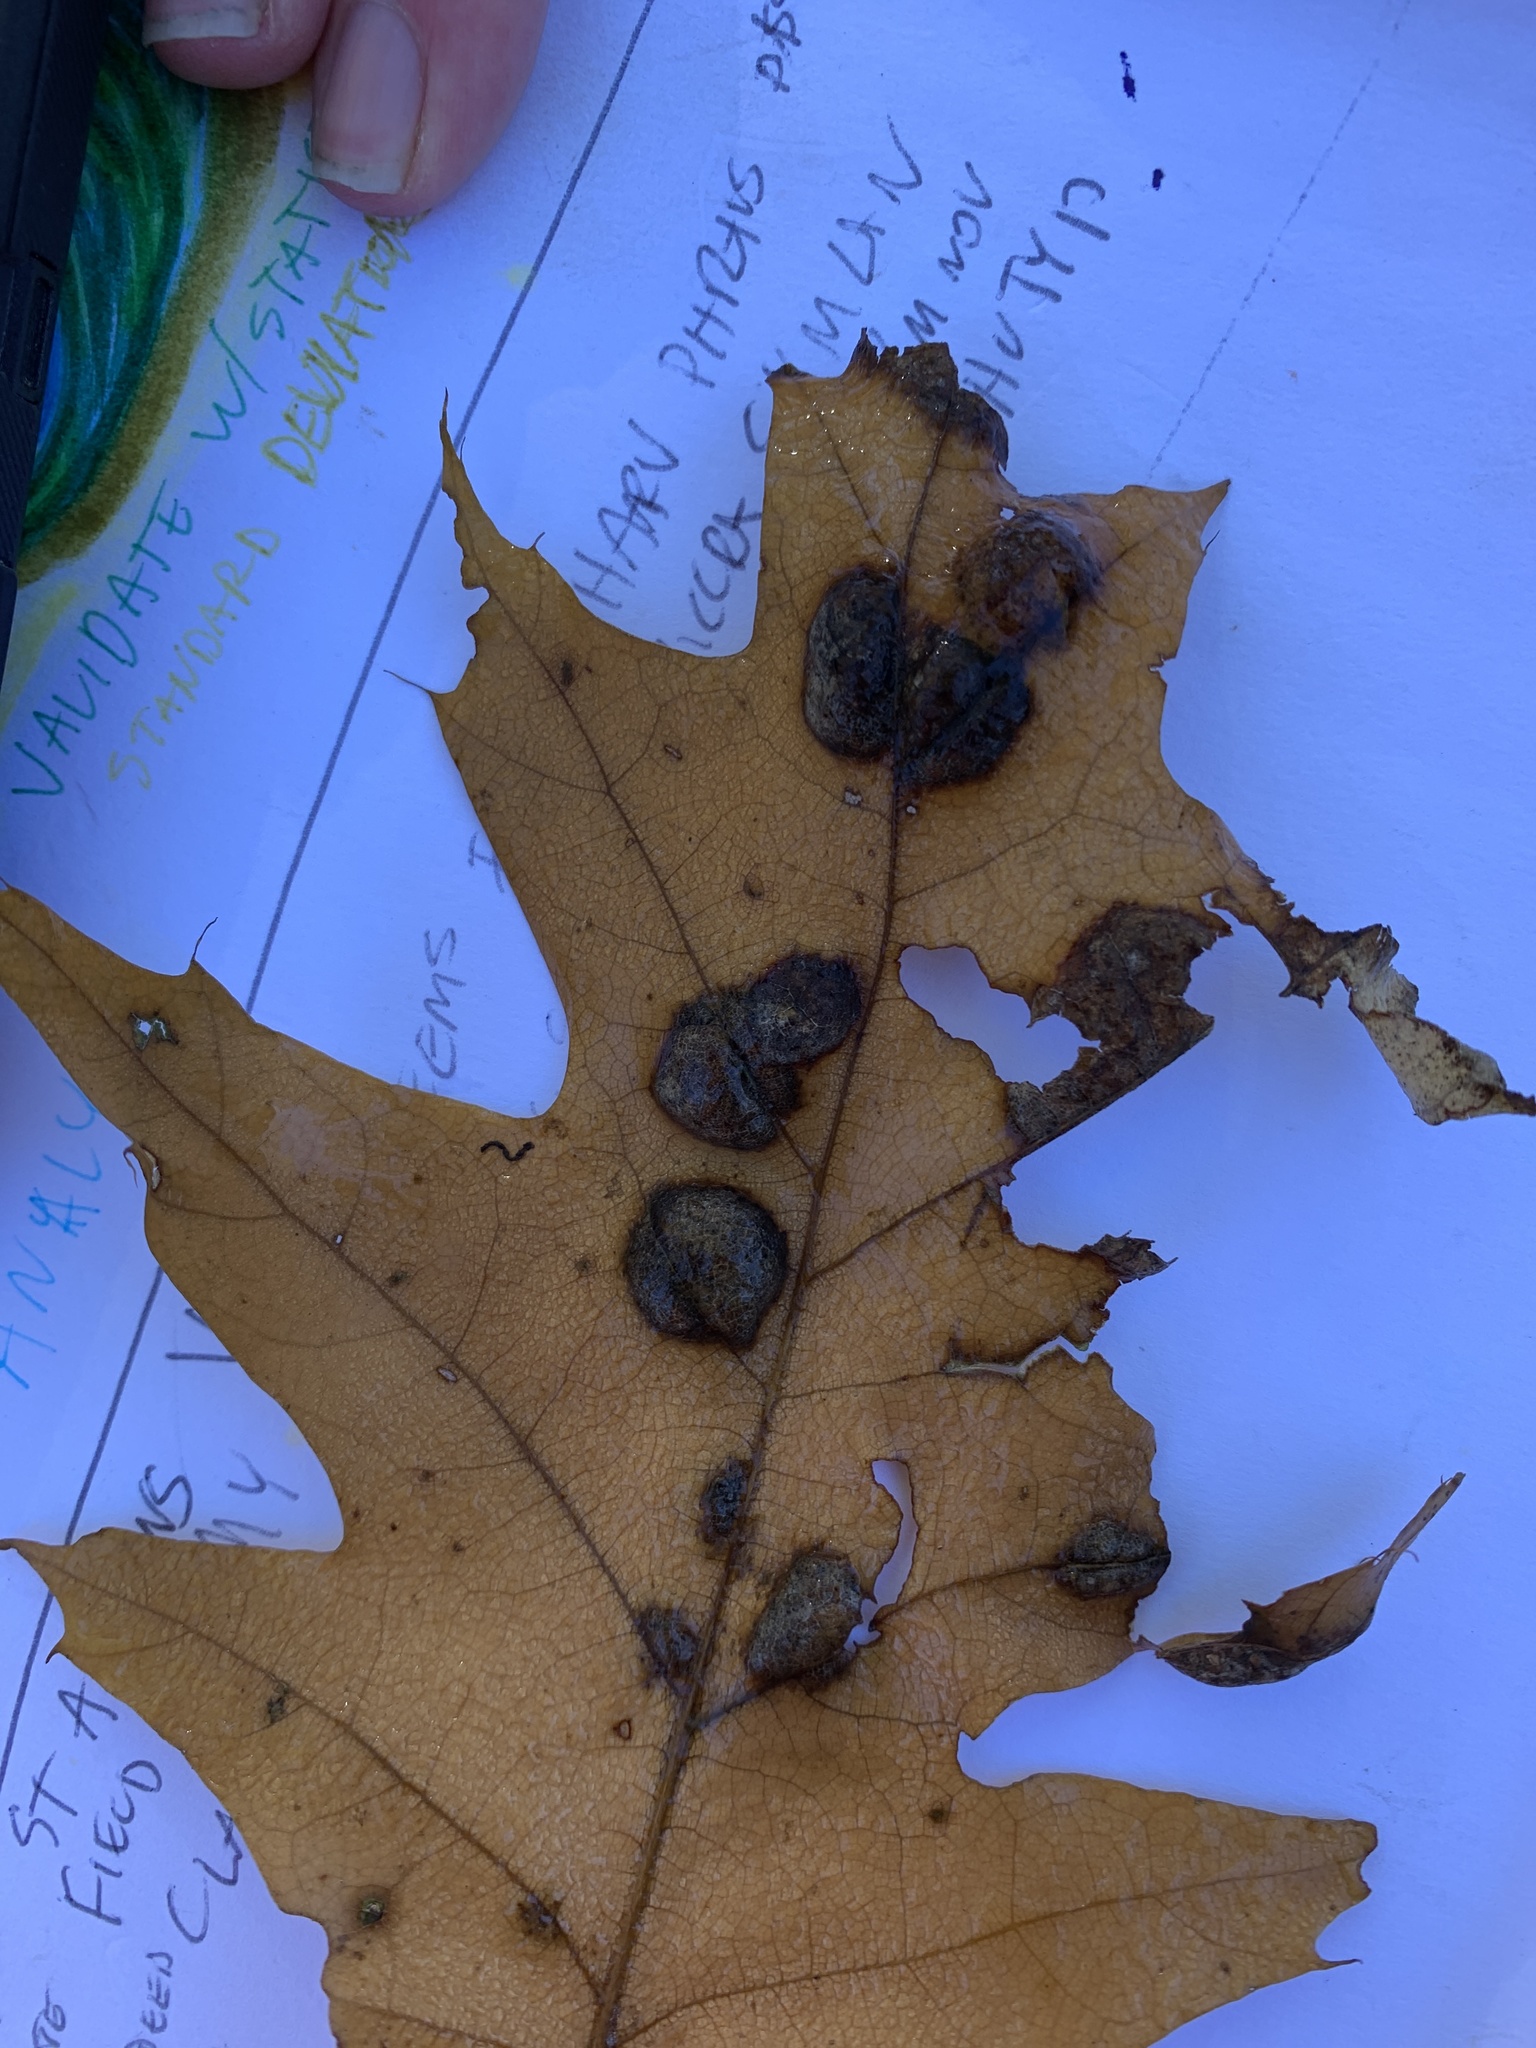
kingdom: Plantae
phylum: Tracheophyta
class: Magnoliopsida
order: Fagales
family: Fagaceae
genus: Quercus
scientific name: Quercus rubra
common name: Red oak
